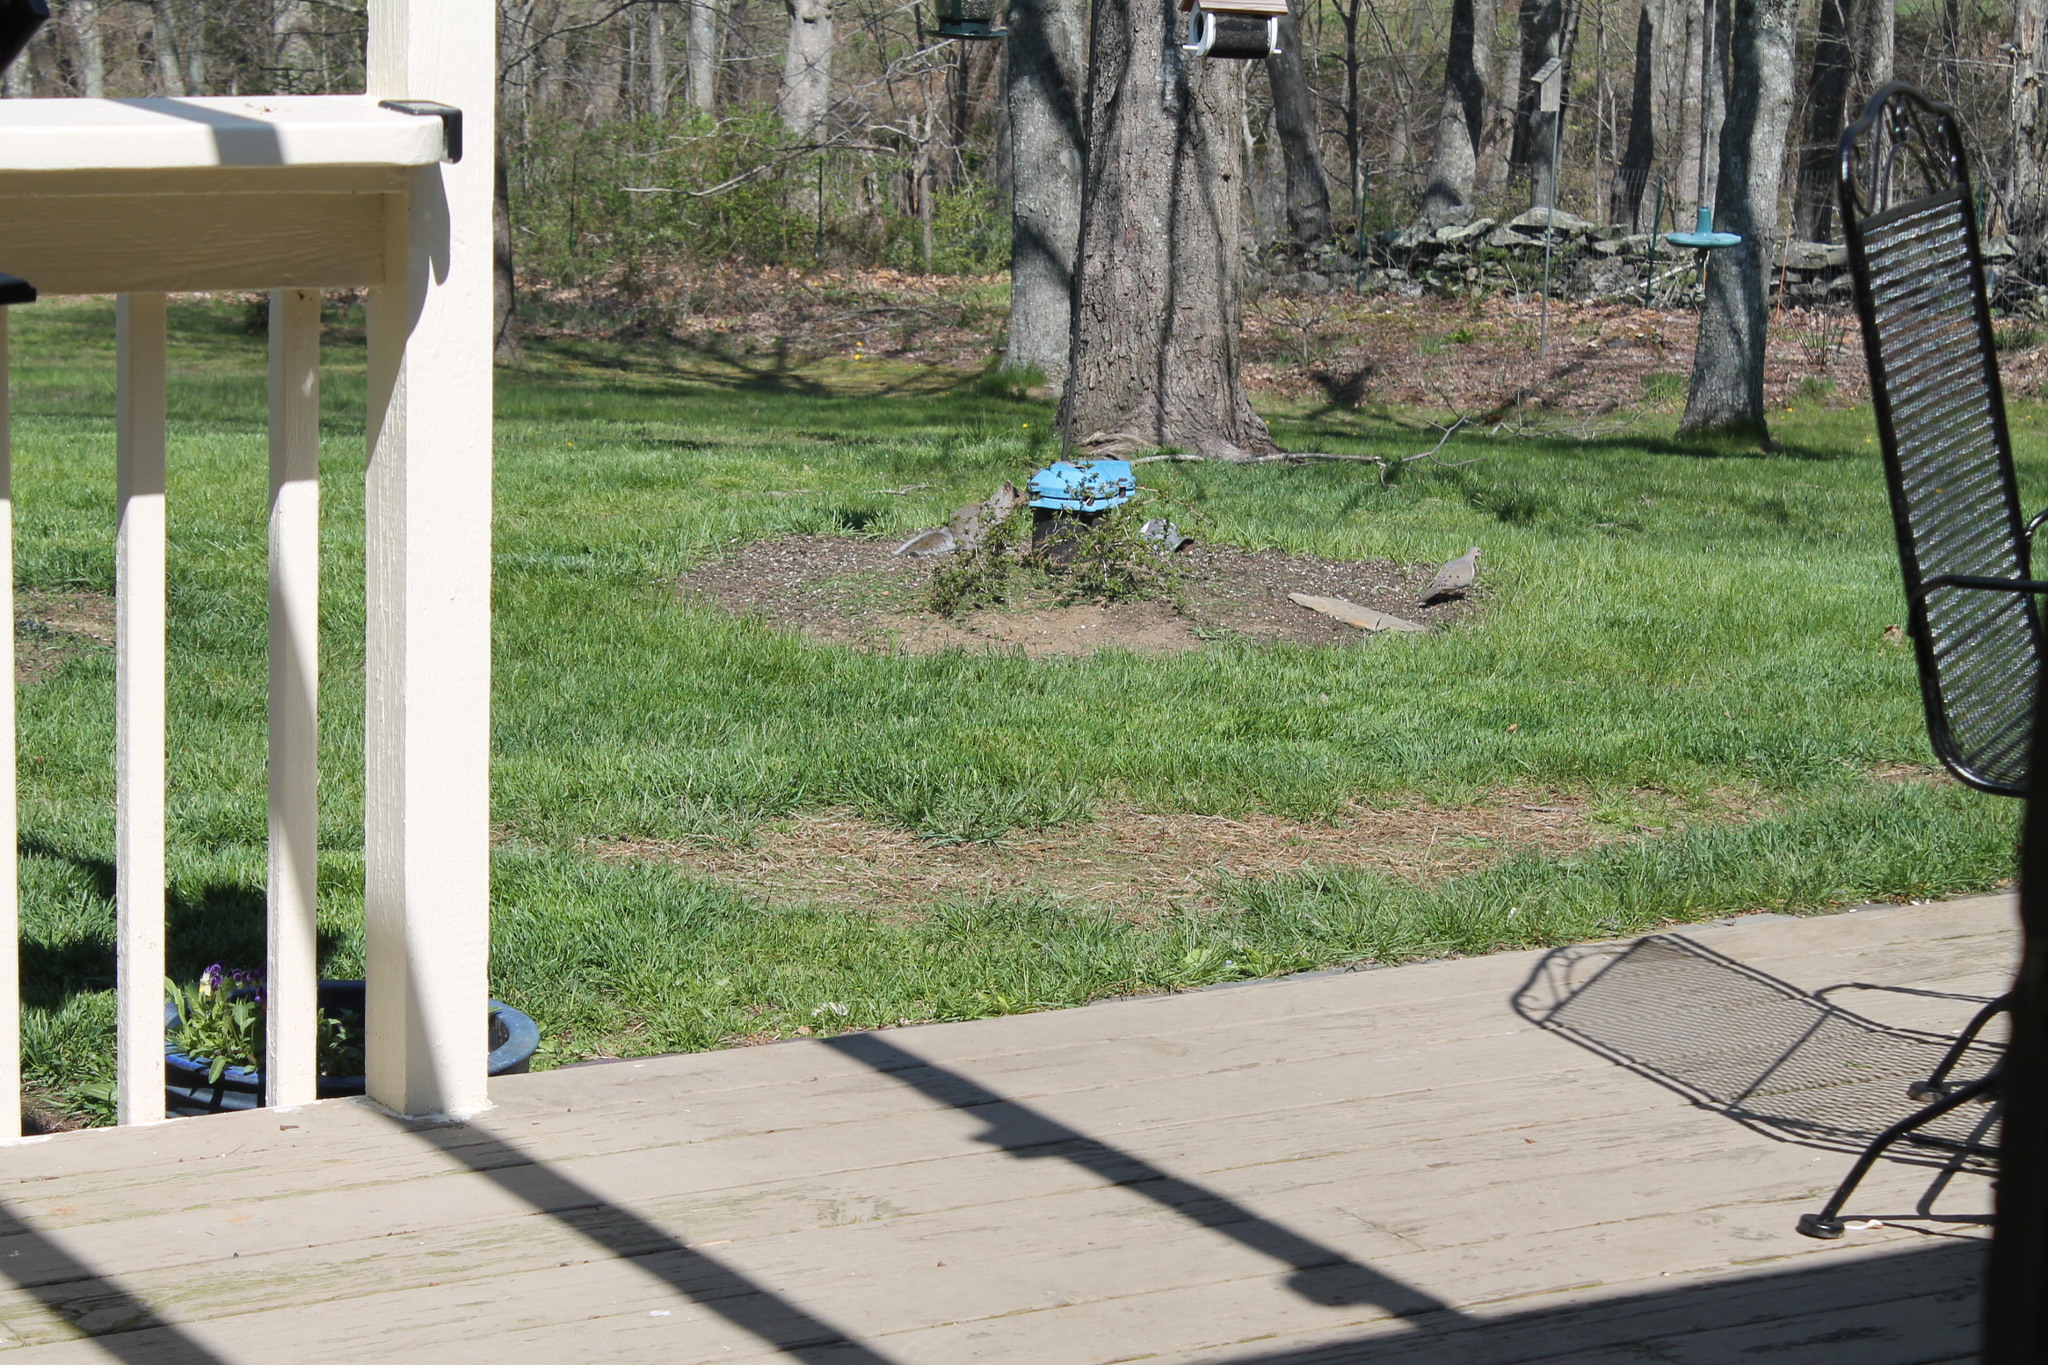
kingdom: Animalia
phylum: Chordata
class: Mammalia
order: Rodentia
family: Sciuridae
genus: Sciurus
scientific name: Sciurus carolinensis
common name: Eastern gray squirrel
